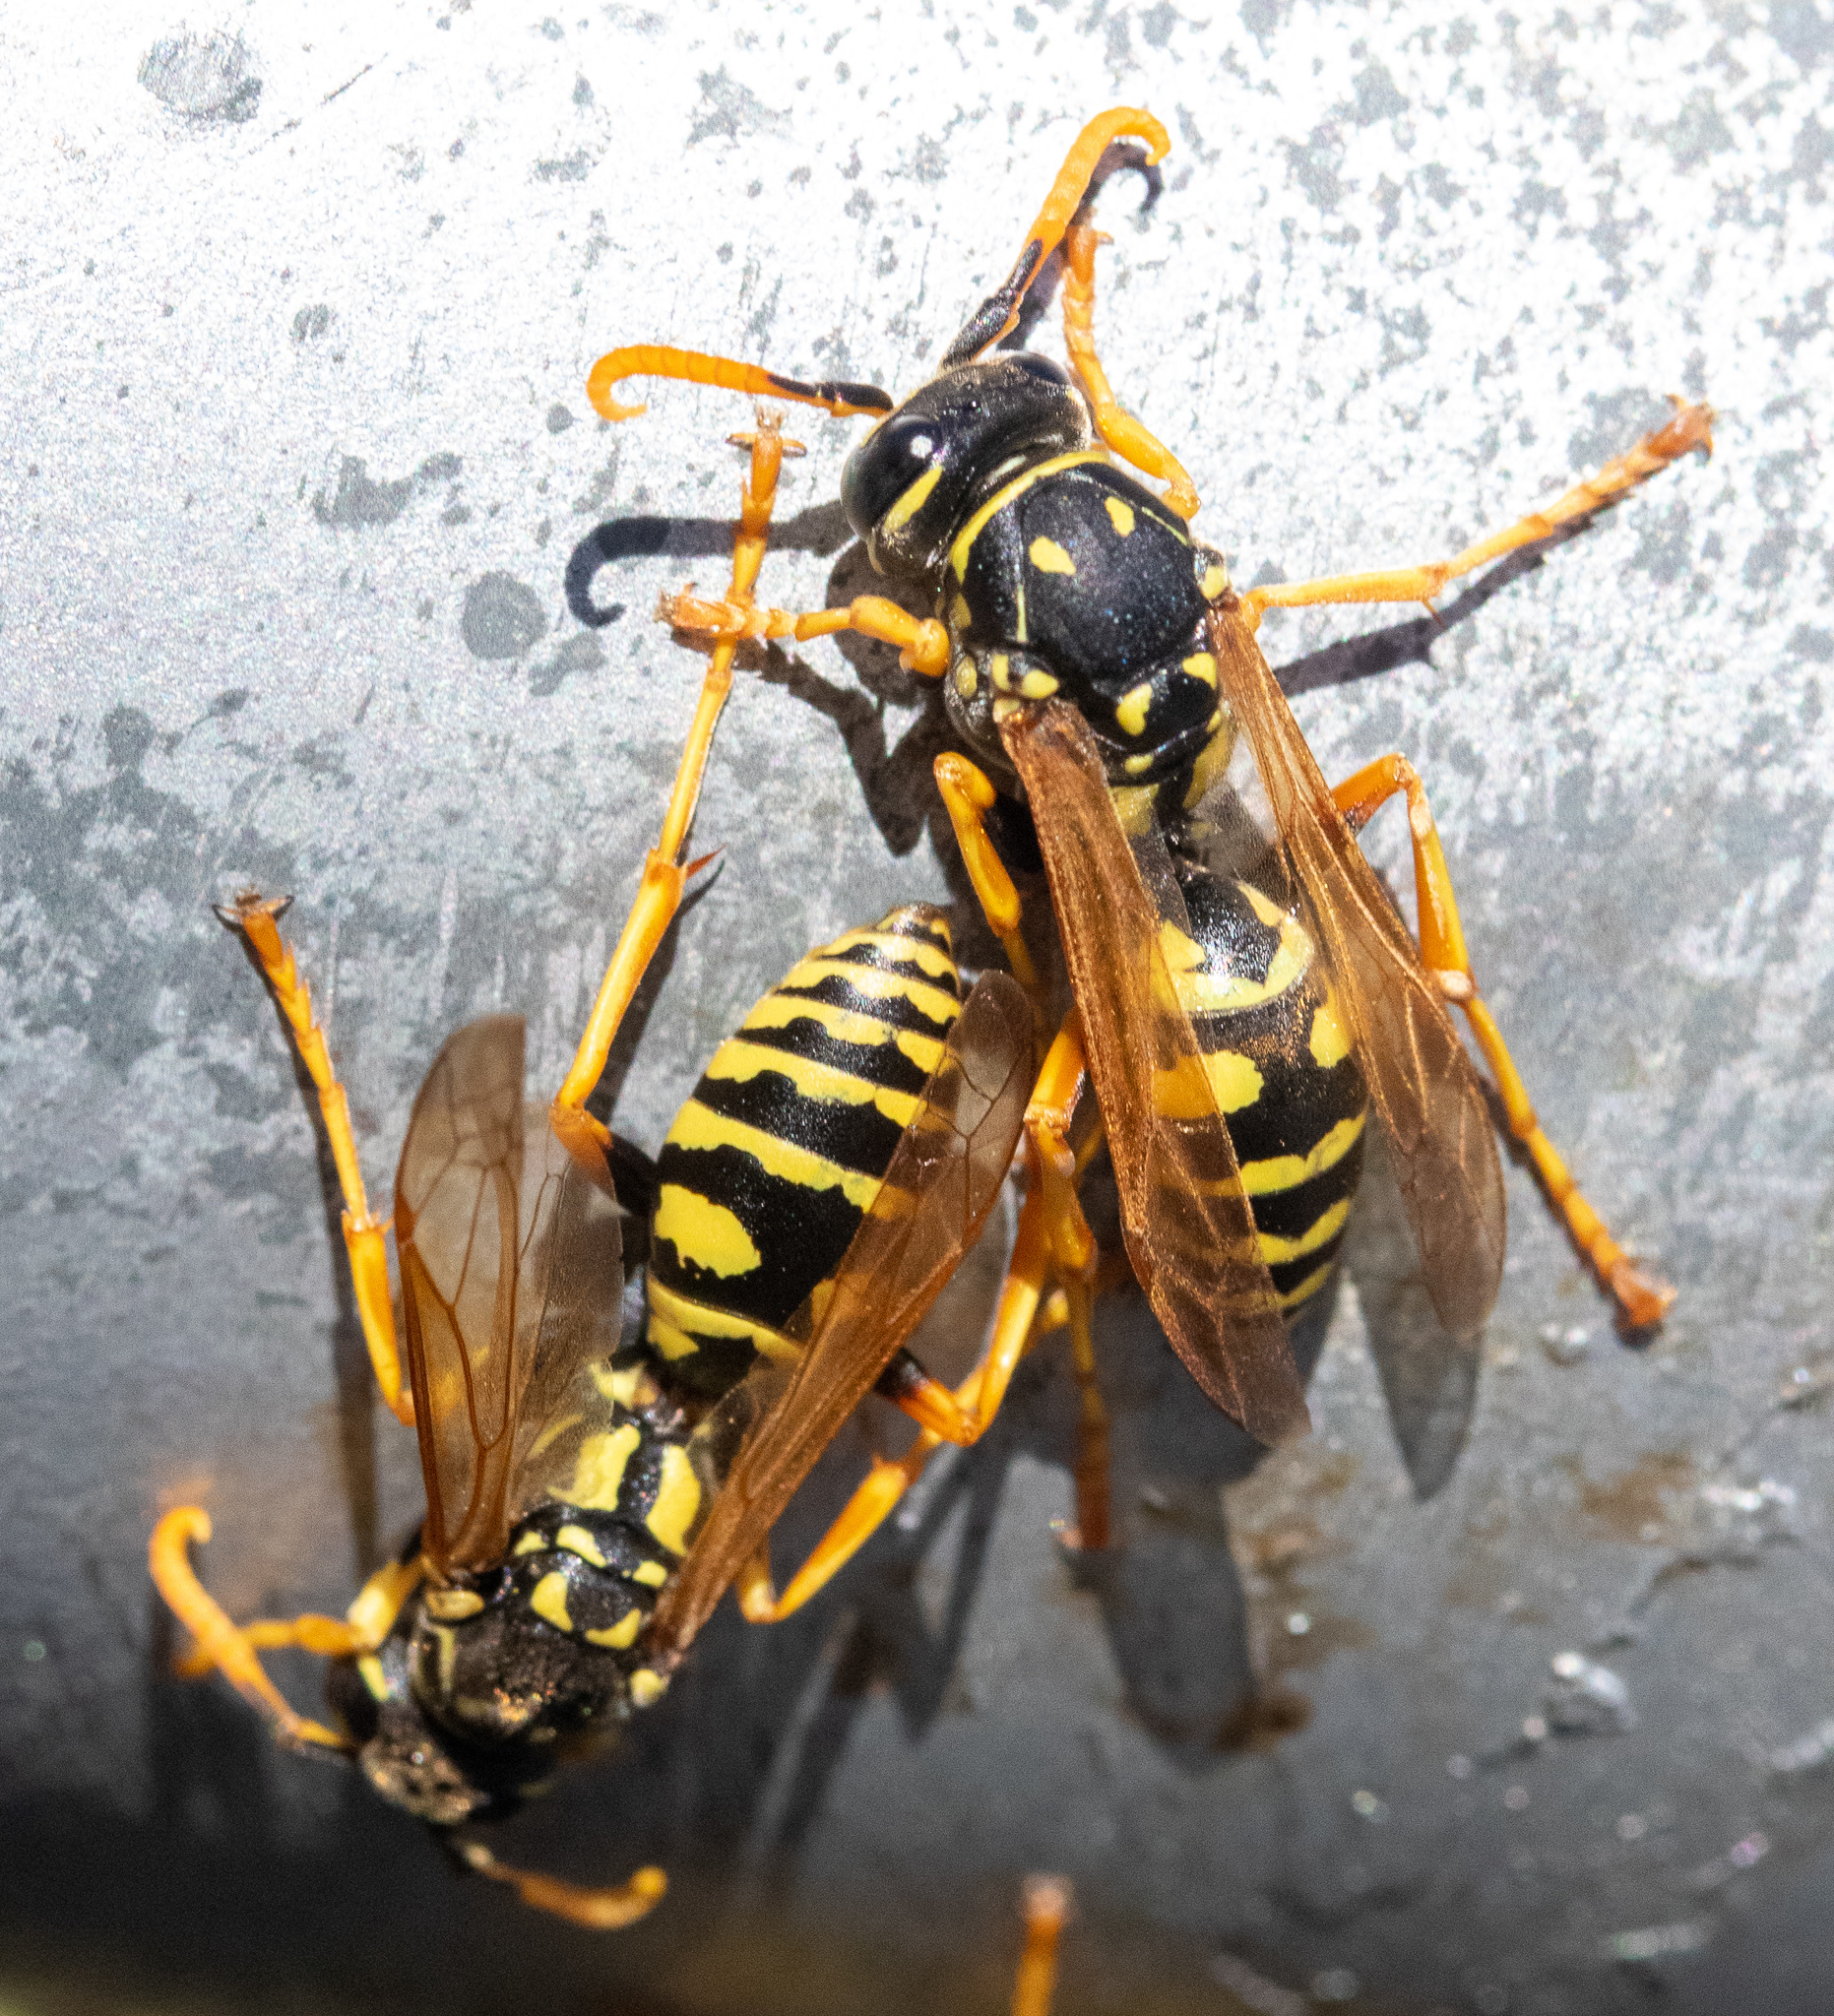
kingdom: Animalia
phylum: Arthropoda
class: Insecta
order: Hymenoptera
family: Eumenidae
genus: Polistes
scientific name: Polistes dominula
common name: Paper wasp
